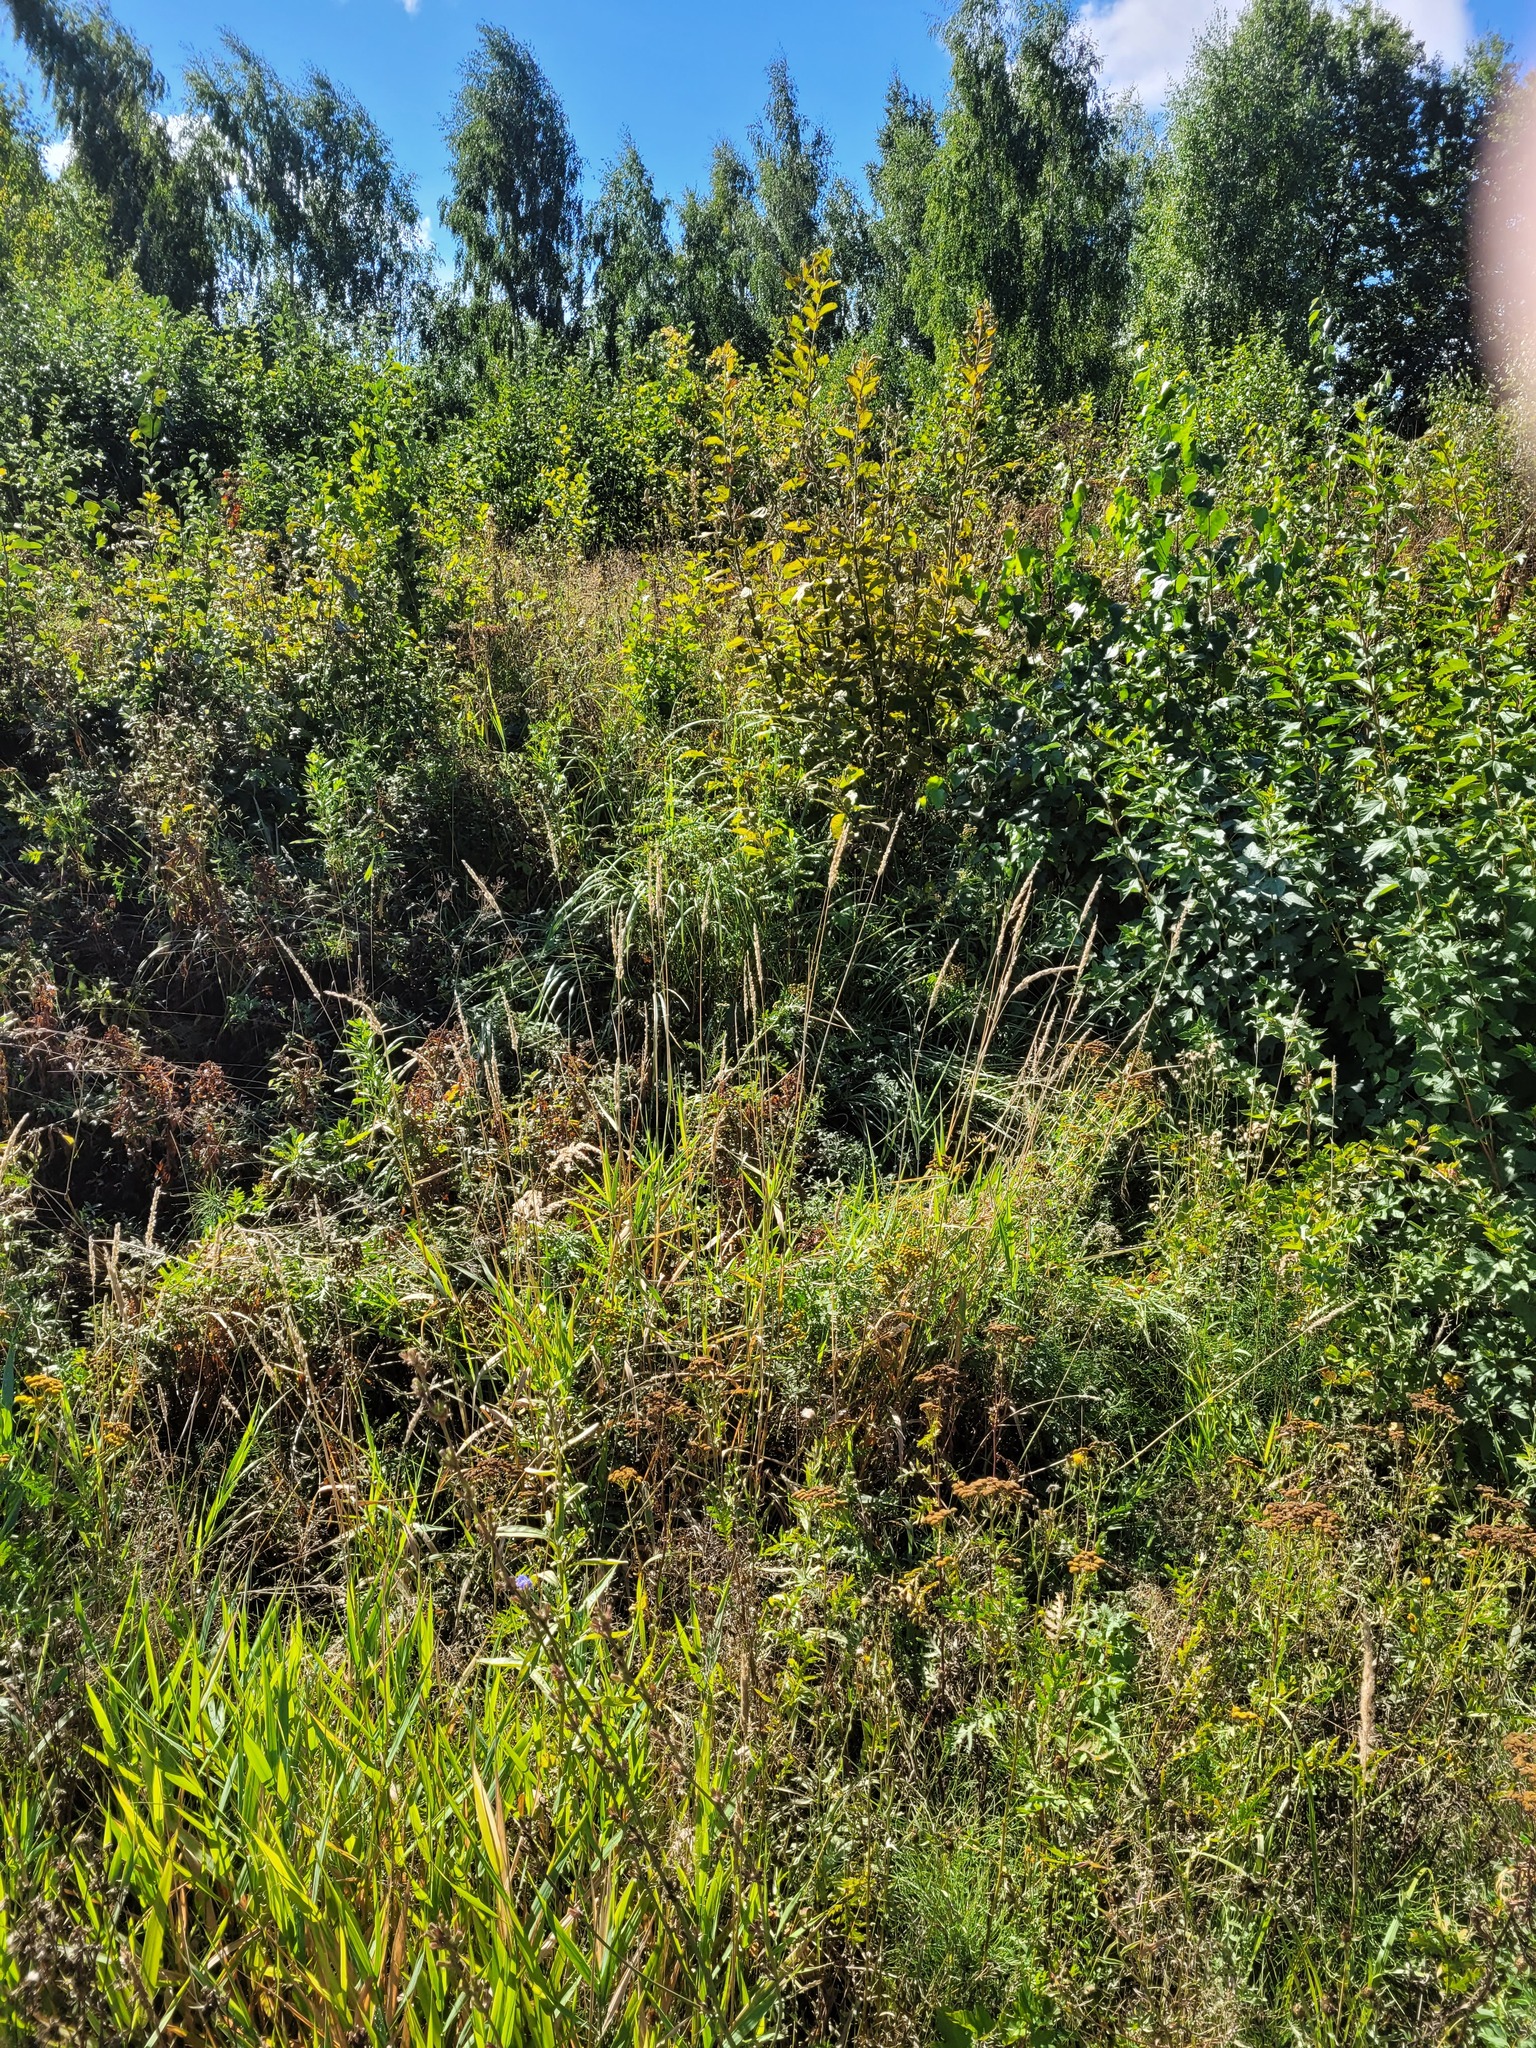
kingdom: Plantae
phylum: Tracheophyta
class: Liliopsida
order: Poales
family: Poaceae
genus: Phalaris
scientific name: Phalaris arundinacea
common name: Reed canary-grass
